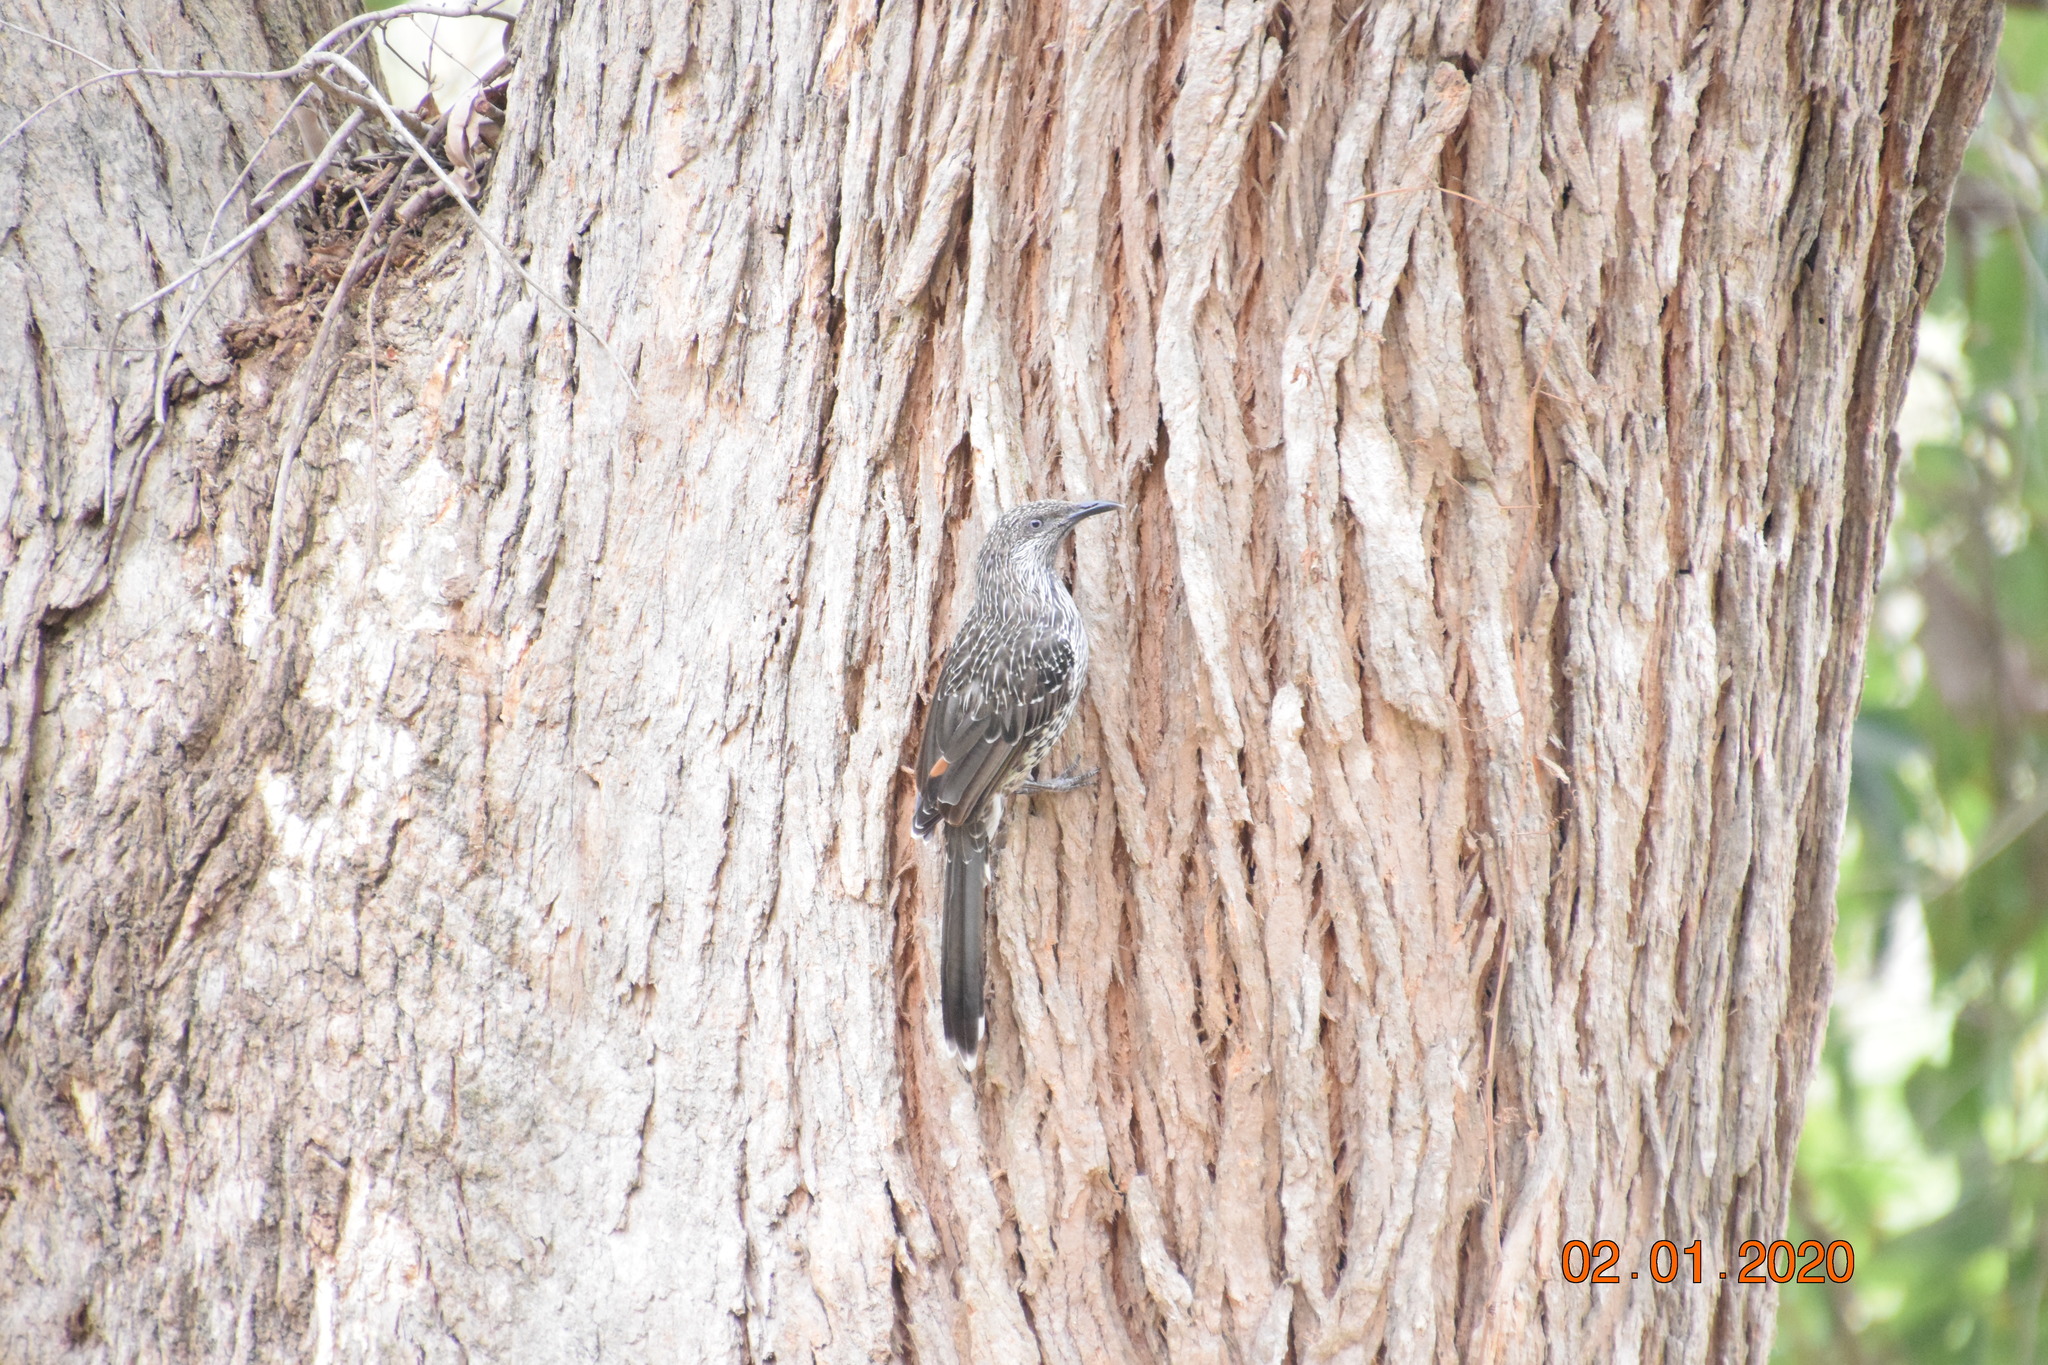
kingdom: Animalia
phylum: Chordata
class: Aves
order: Passeriformes
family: Meliphagidae
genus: Anthochaera
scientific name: Anthochaera chrysoptera
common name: Little wattlebird
